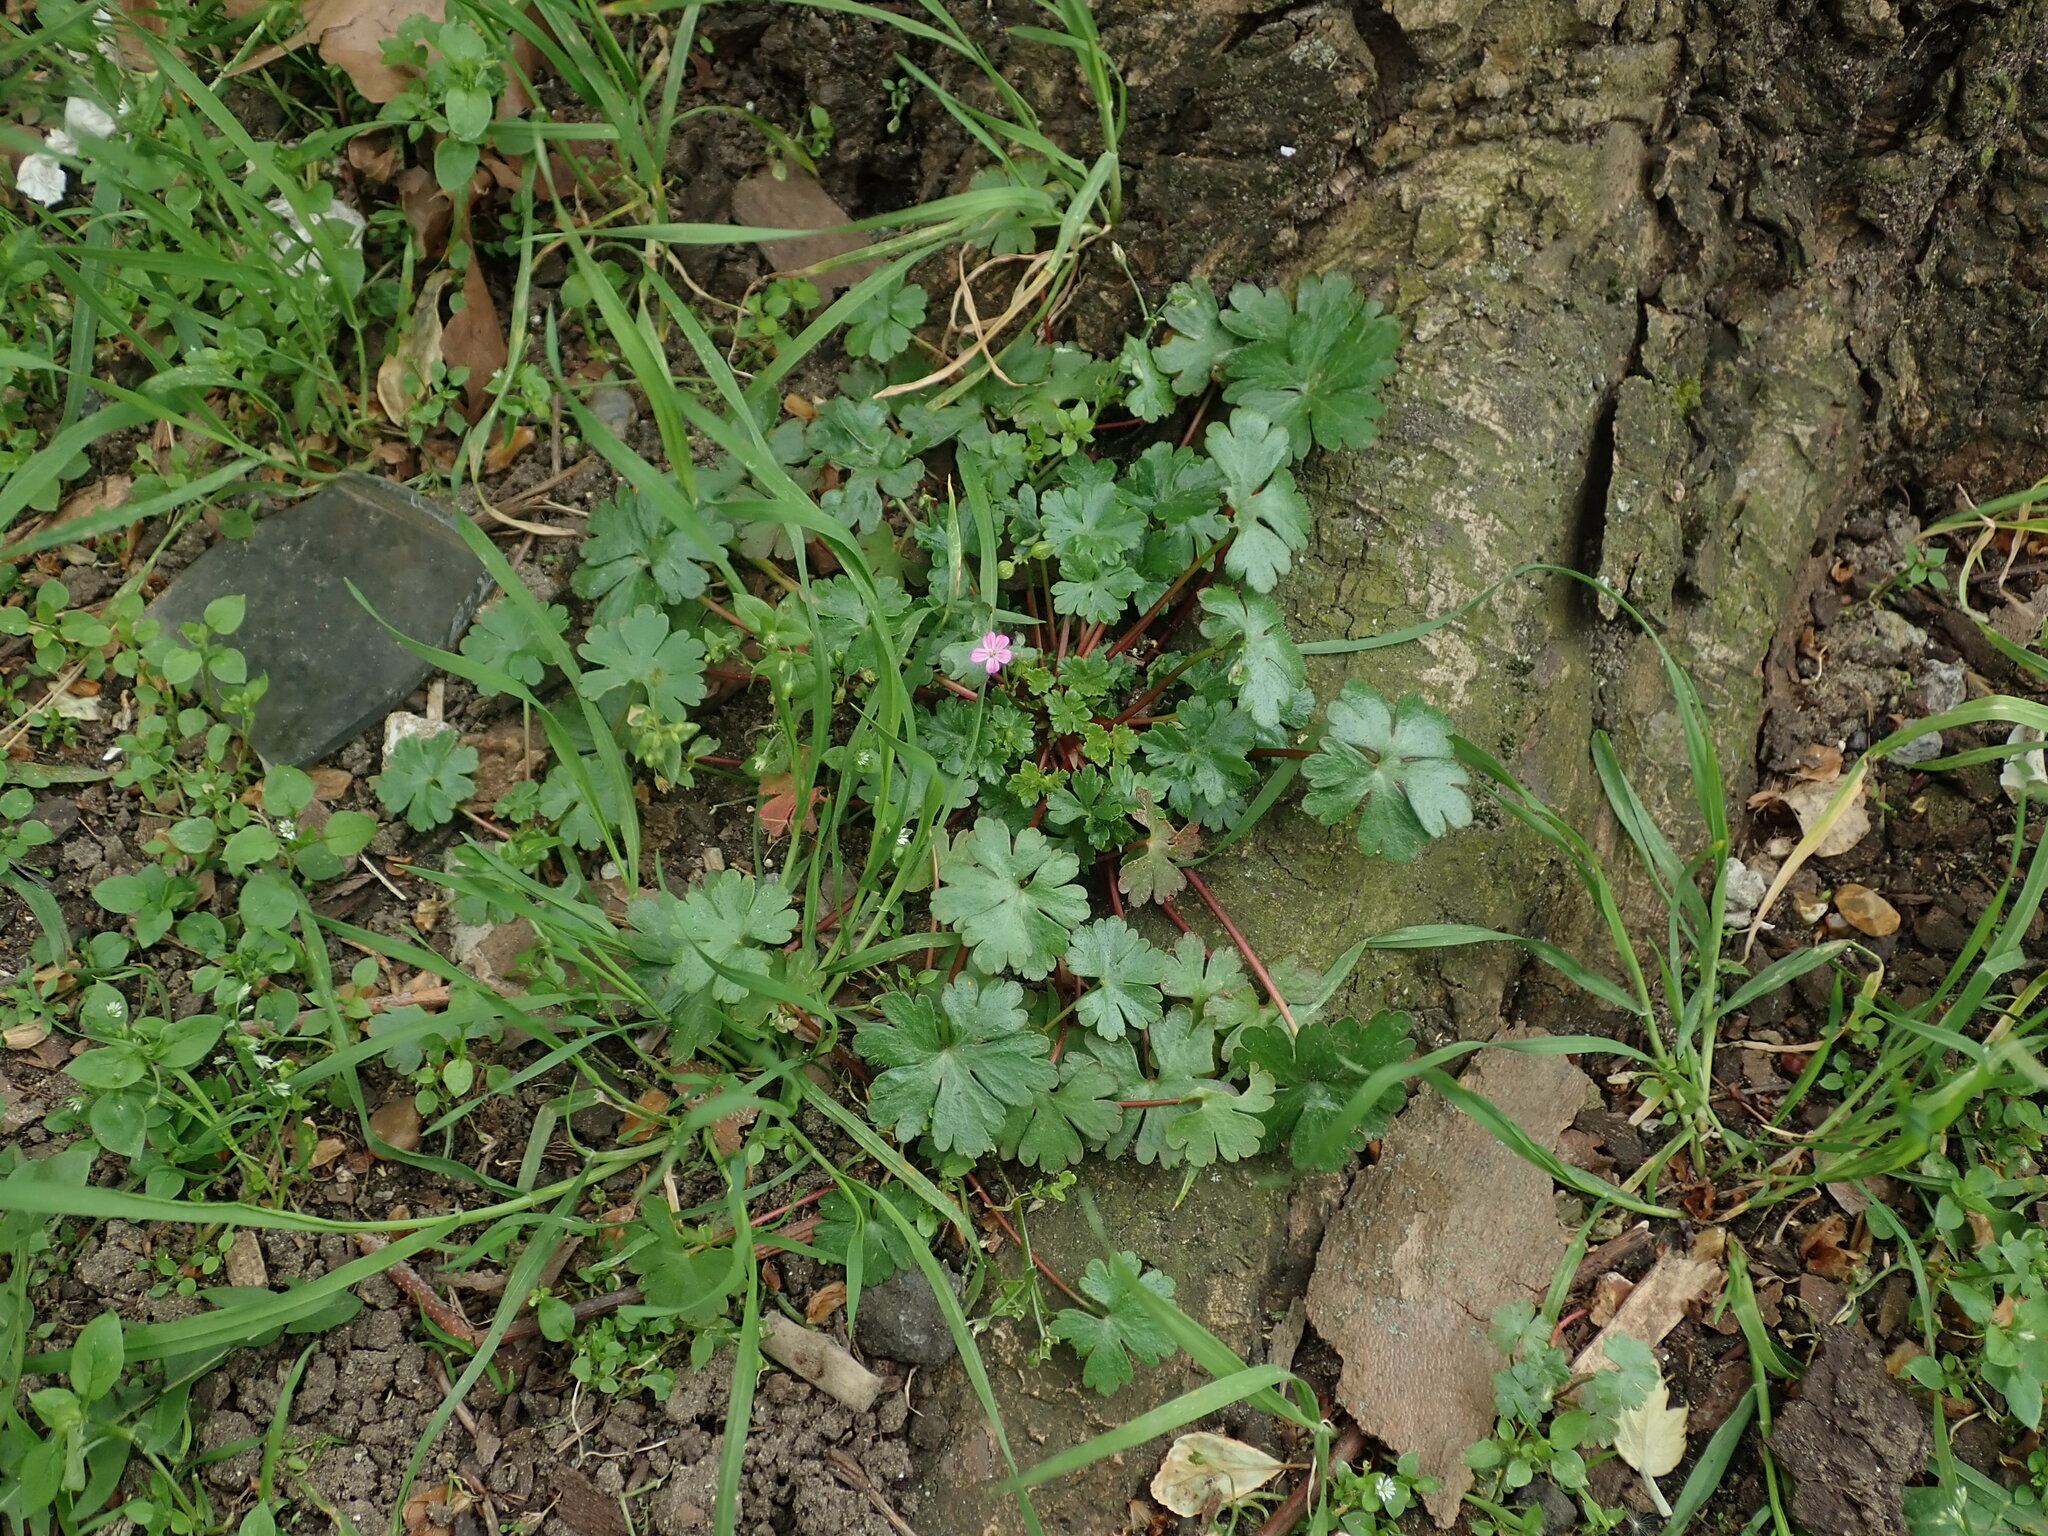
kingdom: Plantae
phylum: Tracheophyta
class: Magnoliopsida
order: Geraniales
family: Geraniaceae
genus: Geranium
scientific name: Geranium lucidum
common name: Shining crane's-bill
